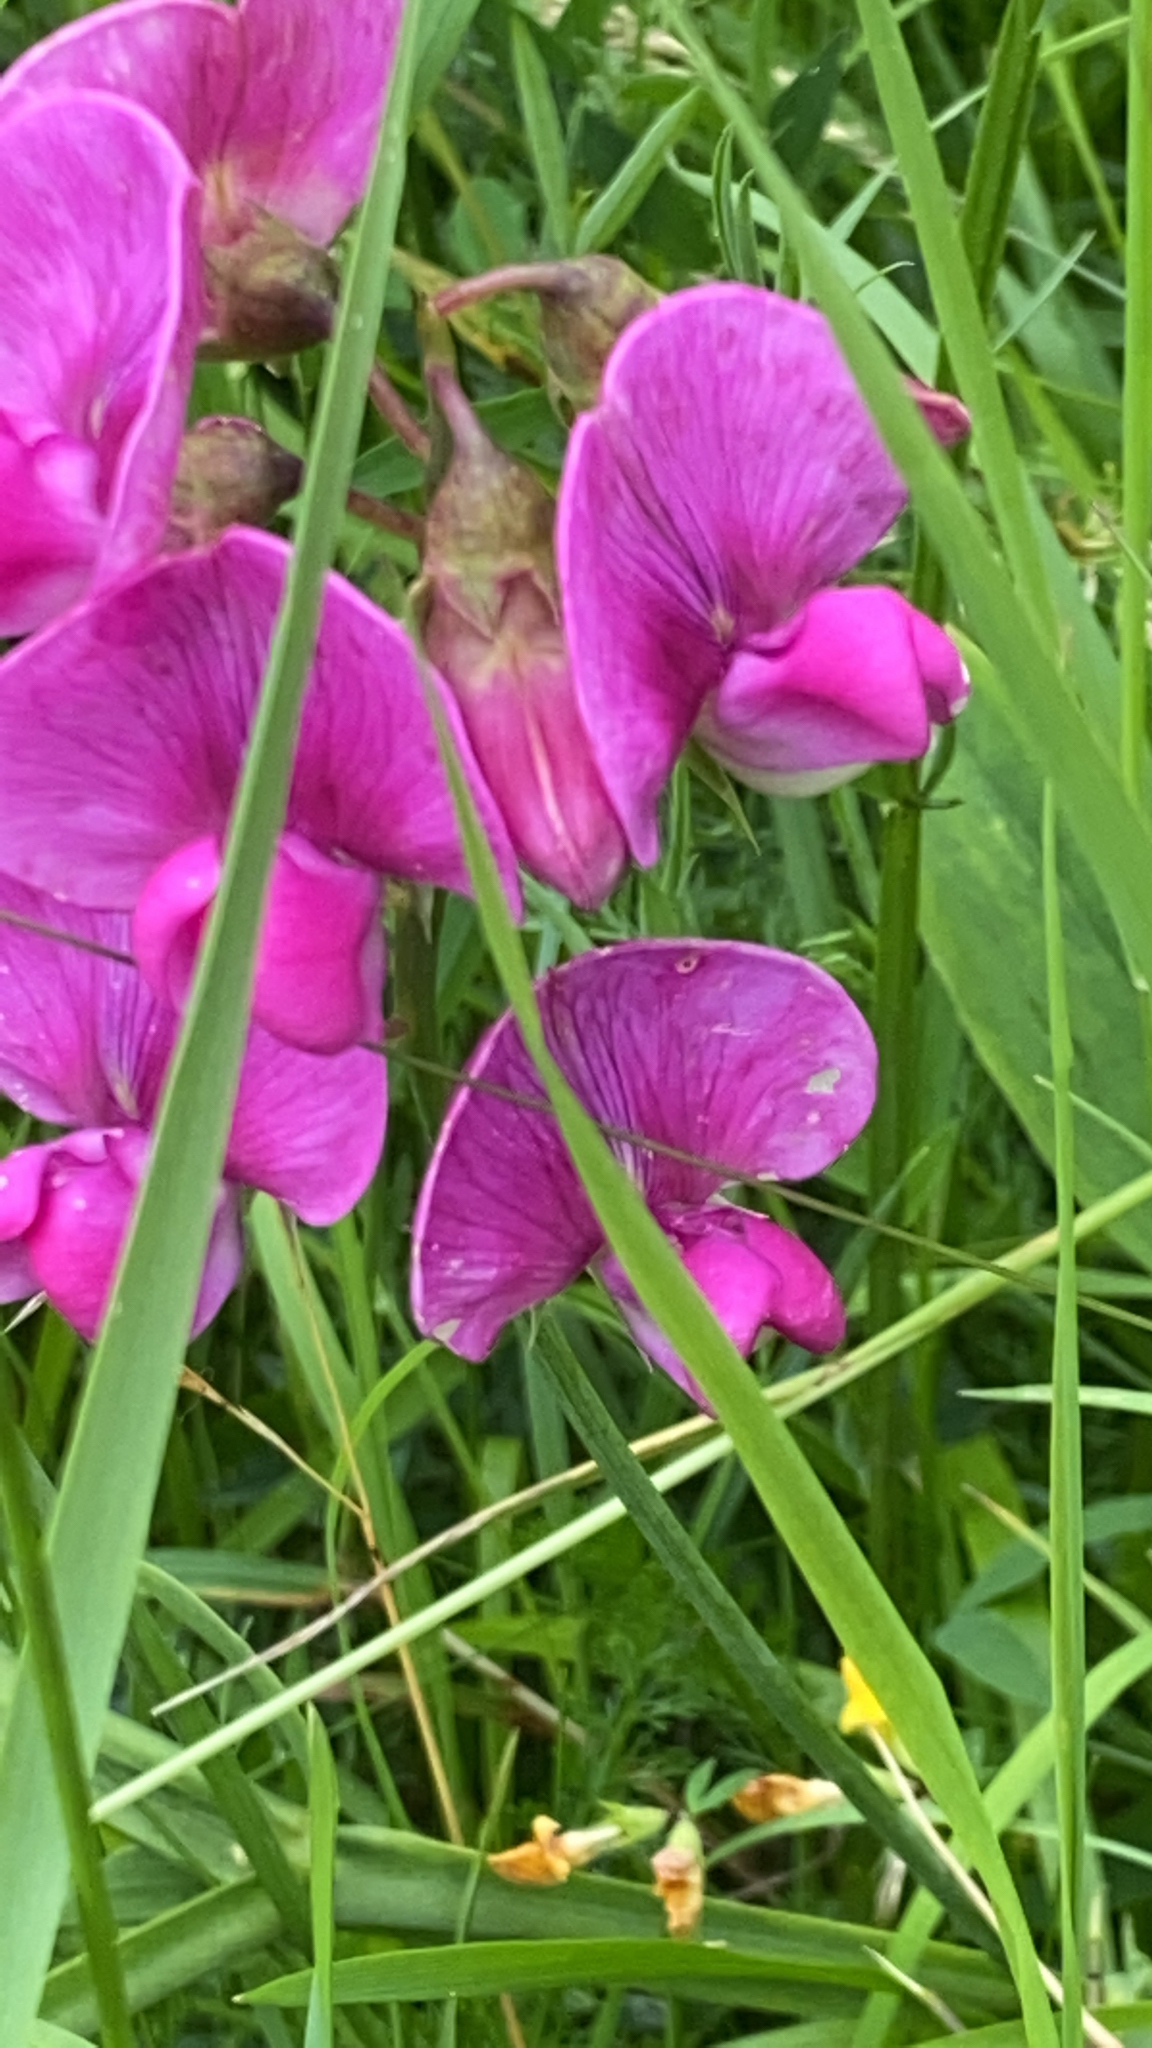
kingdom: Plantae
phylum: Tracheophyta
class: Magnoliopsida
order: Fabales
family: Fabaceae
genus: Lathyrus
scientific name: Lathyrus latifolius
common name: Perennial pea
